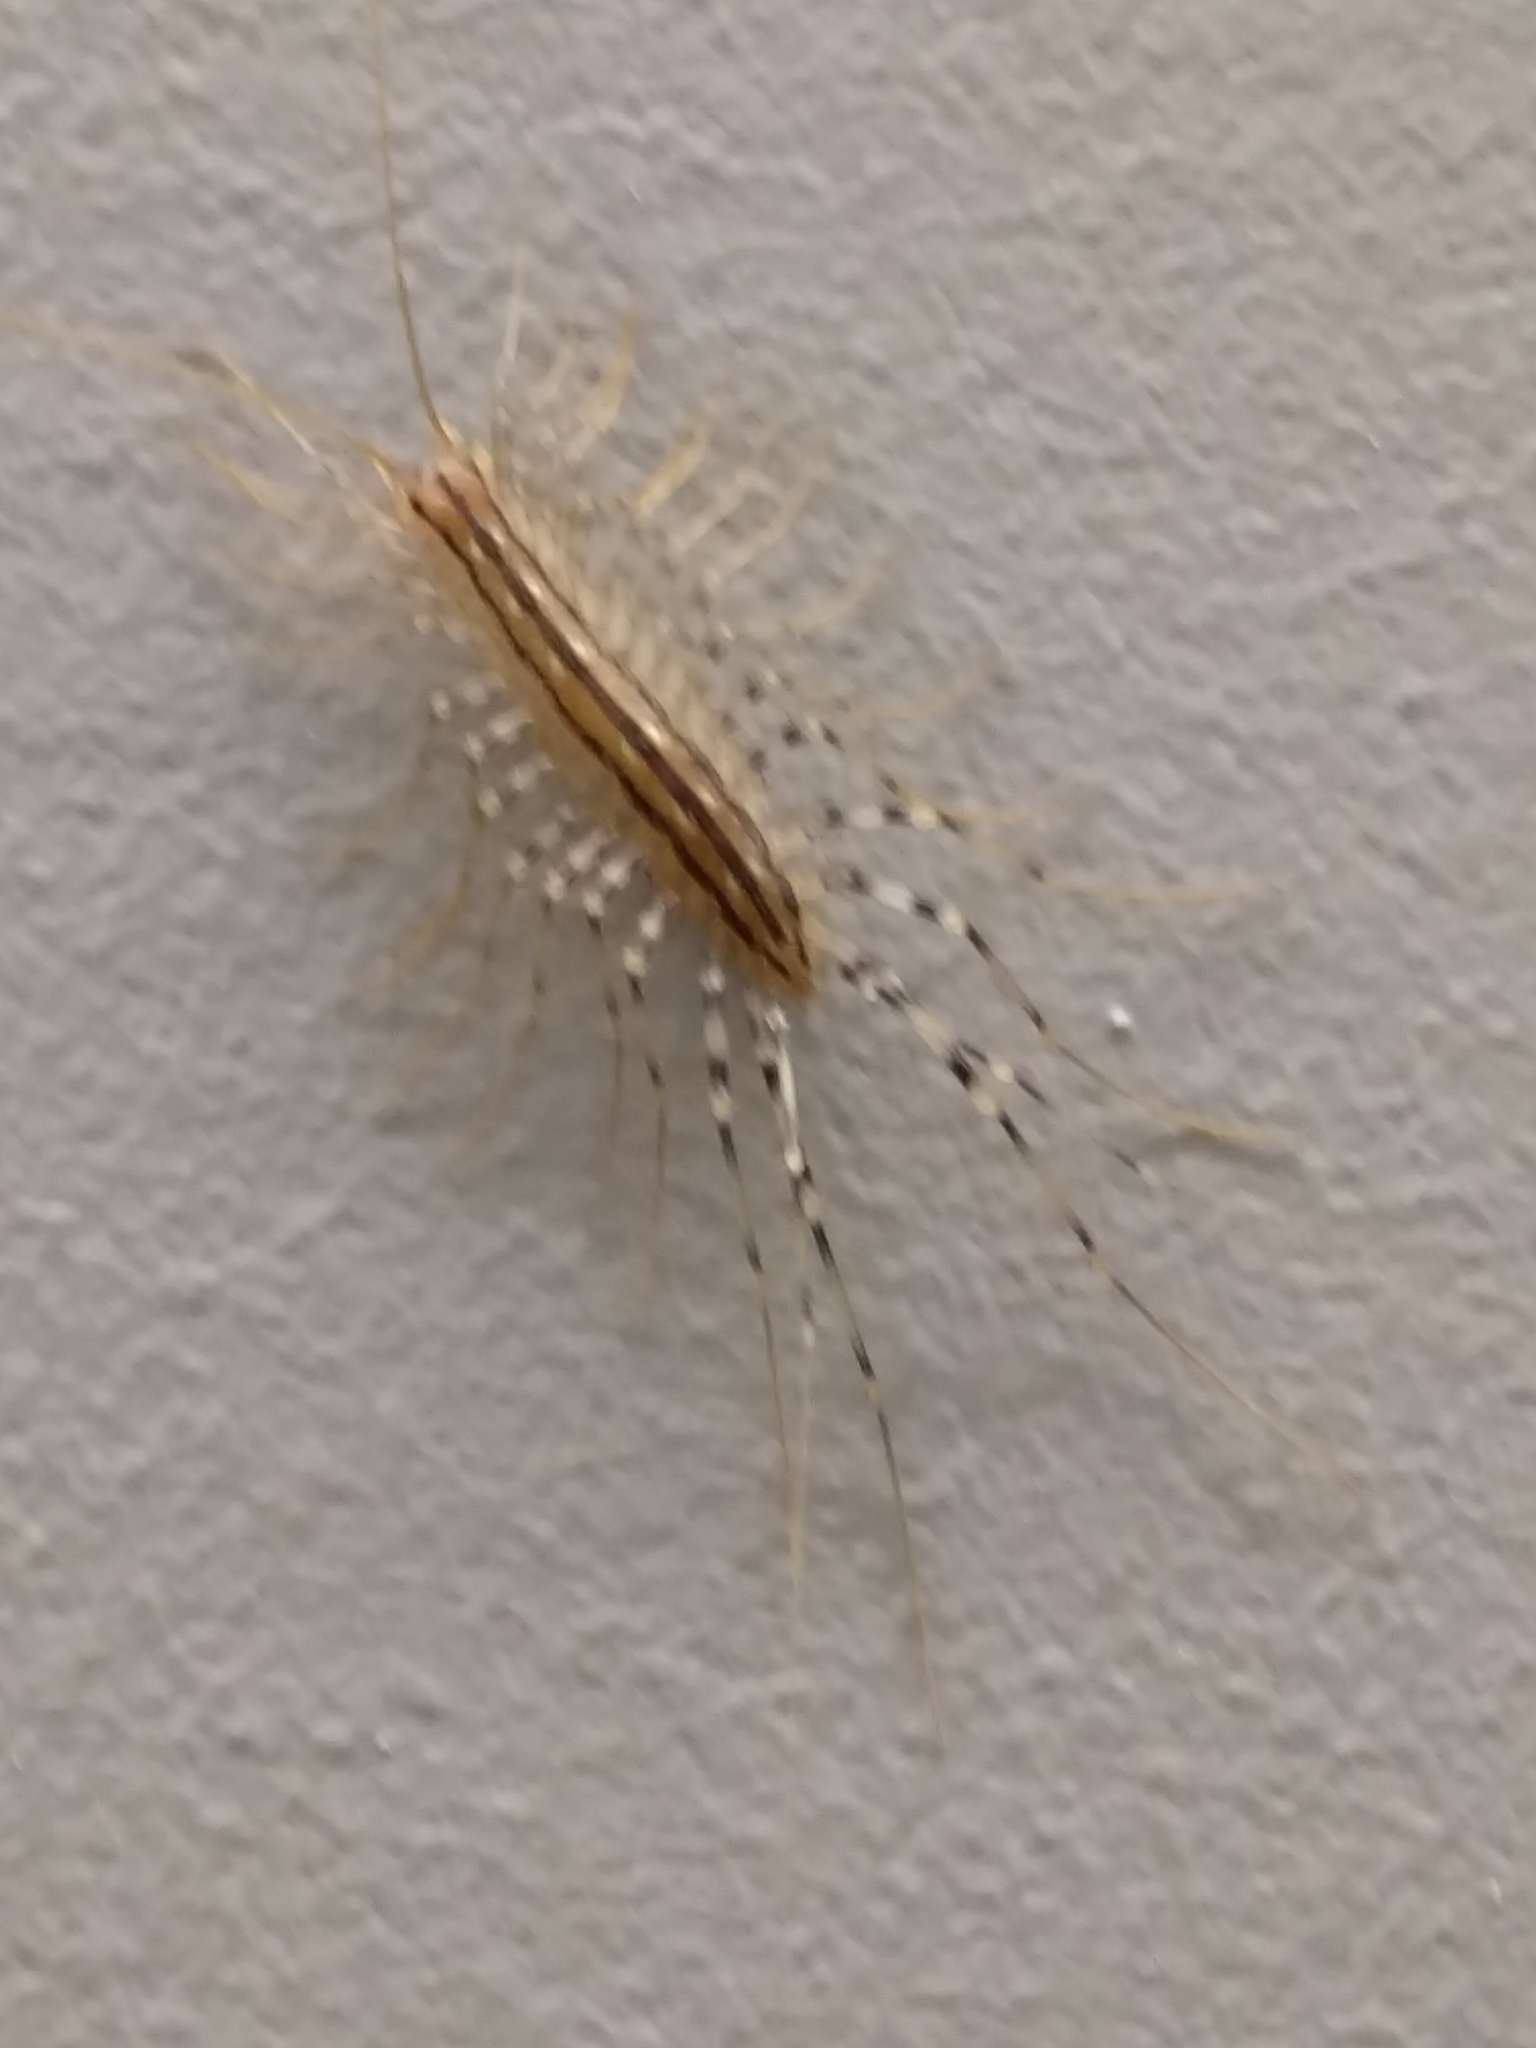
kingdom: Animalia
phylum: Arthropoda
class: Chilopoda
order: Scutigeromorpha
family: Scutigeridae
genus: Scutigera
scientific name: Scutigera coleoptrata
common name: House centipede
